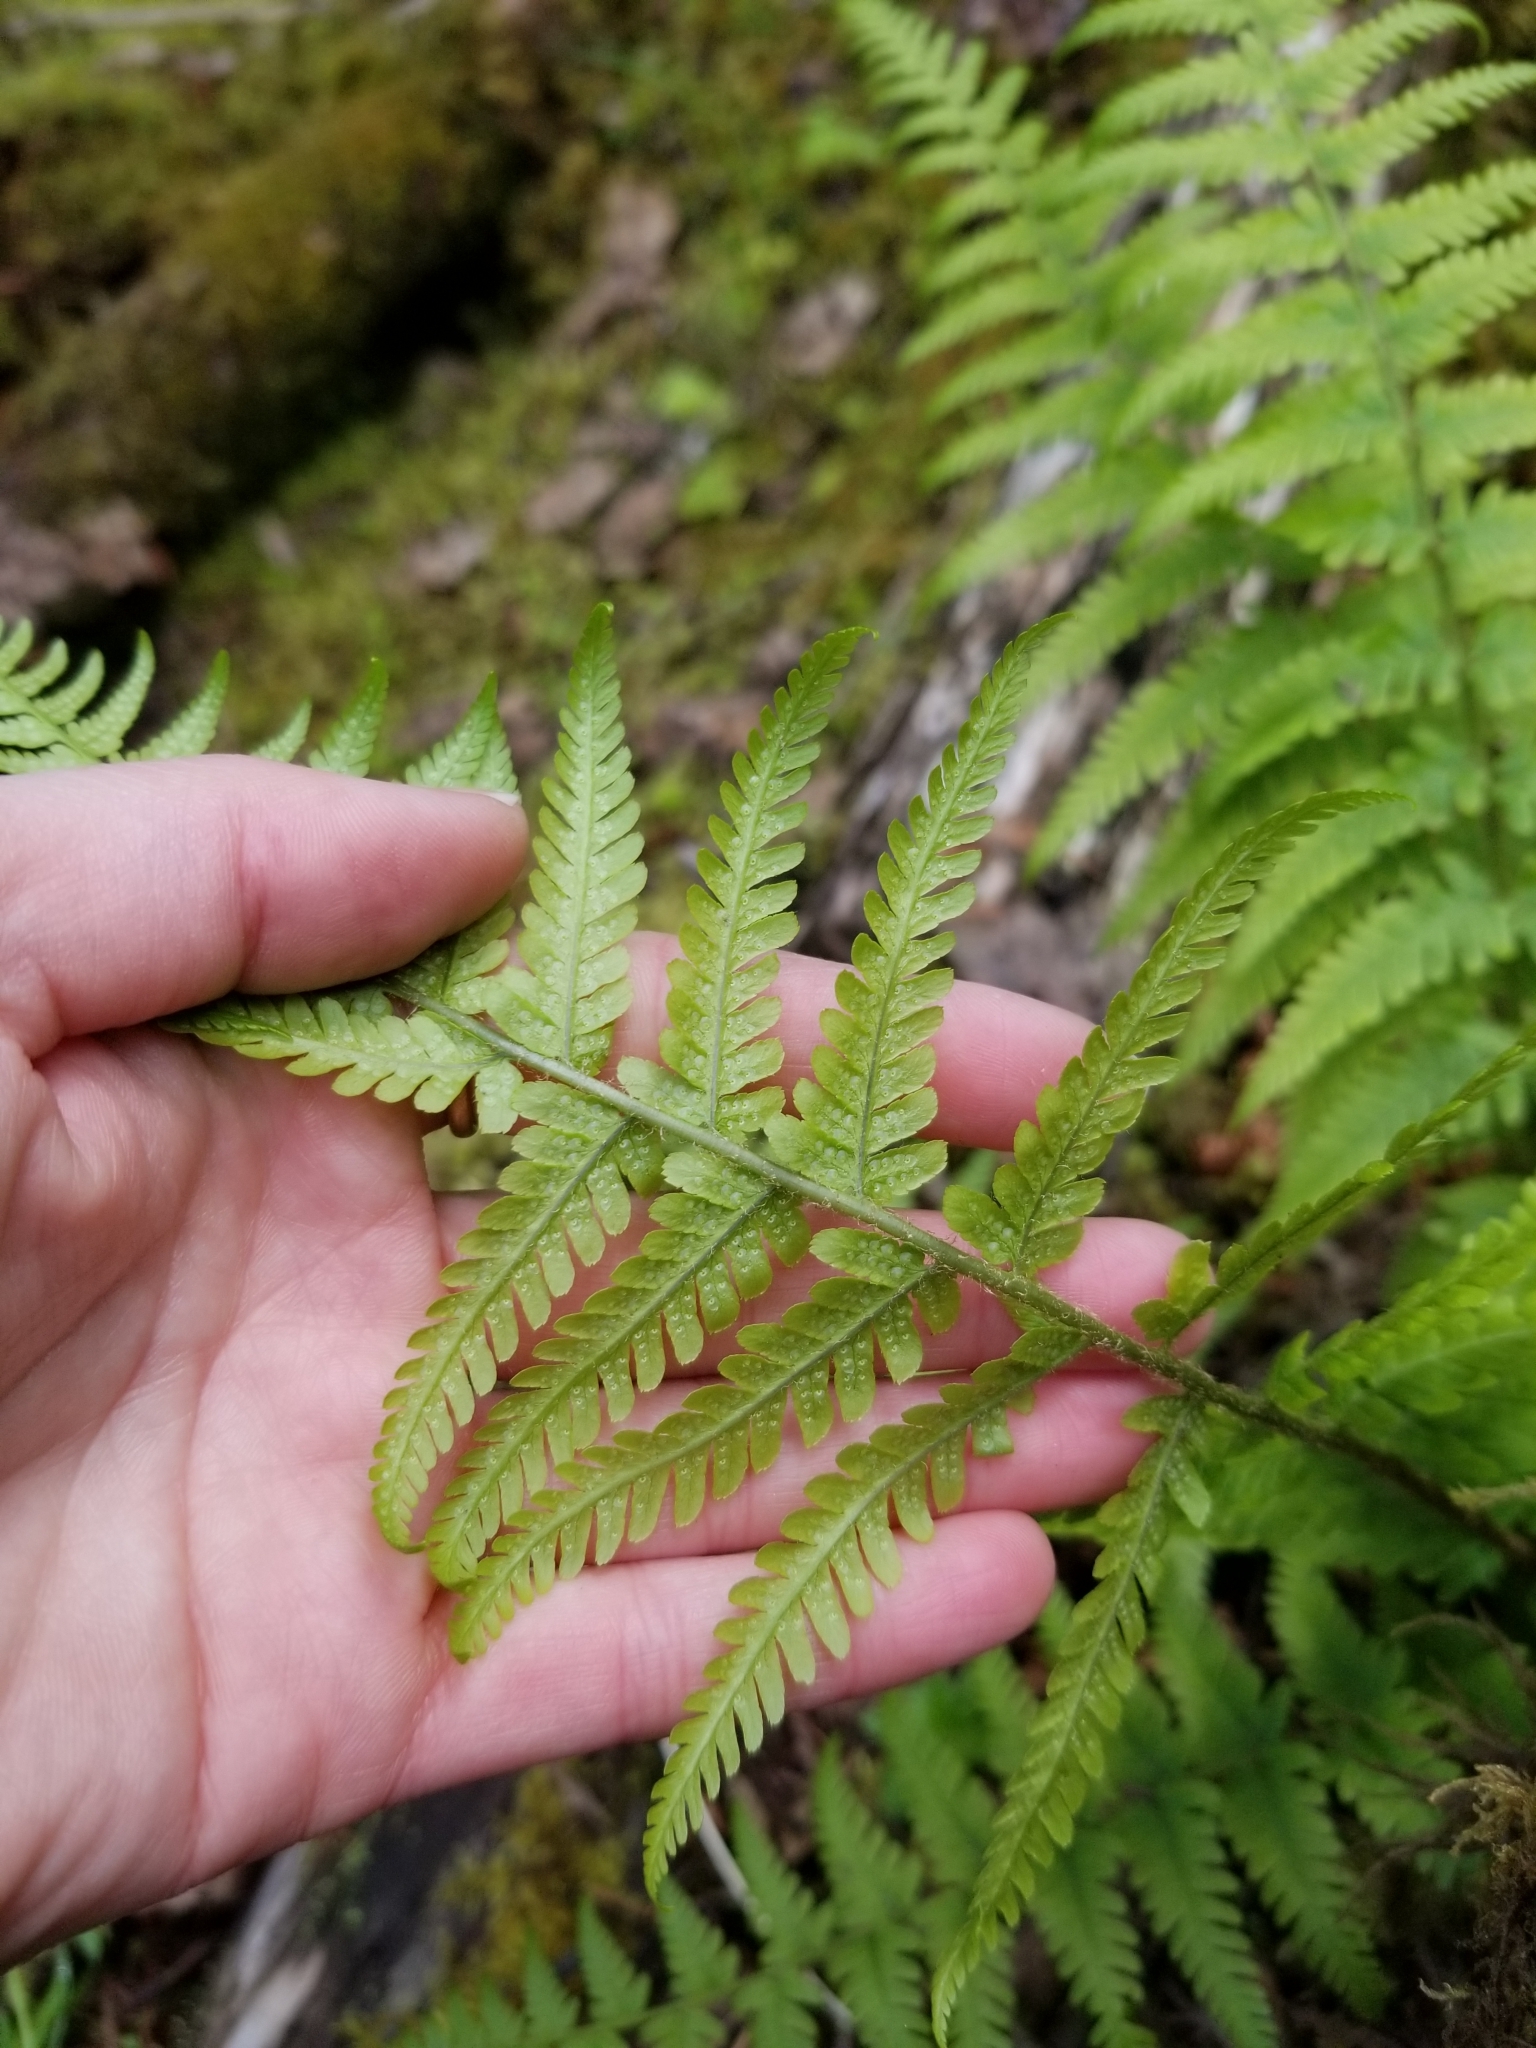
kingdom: Plantae
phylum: Tracheophyta
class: Polypodiopsida
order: Polypodiales
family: Dryopteridaceae
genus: Dryopteris
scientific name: Dryopteris filix-mas
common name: Male fern
